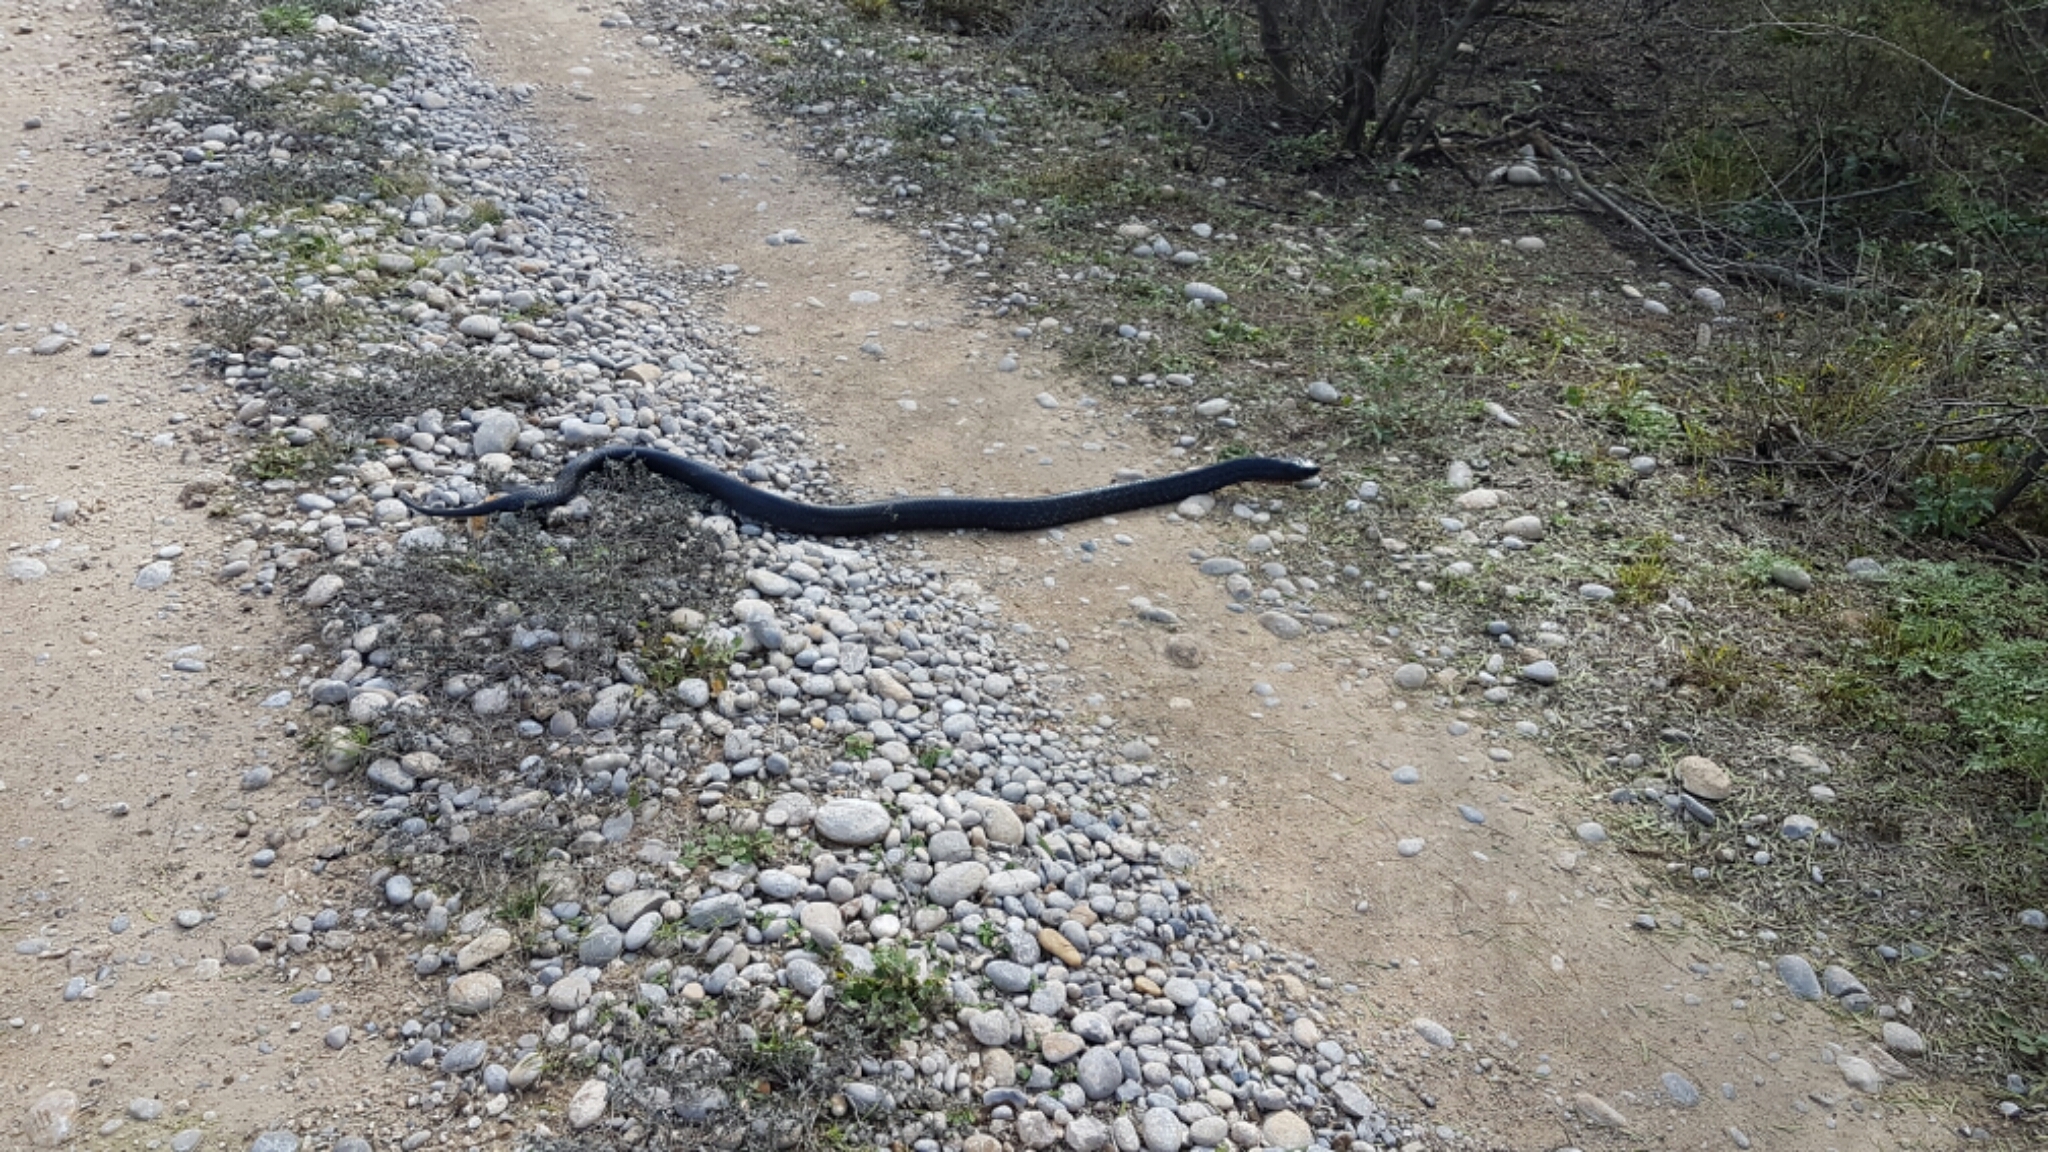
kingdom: Animalia
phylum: Chordata
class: Squamata
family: Colubridae
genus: Drymarchon
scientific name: Drymarchon melanurus
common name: Central american indigo snake
